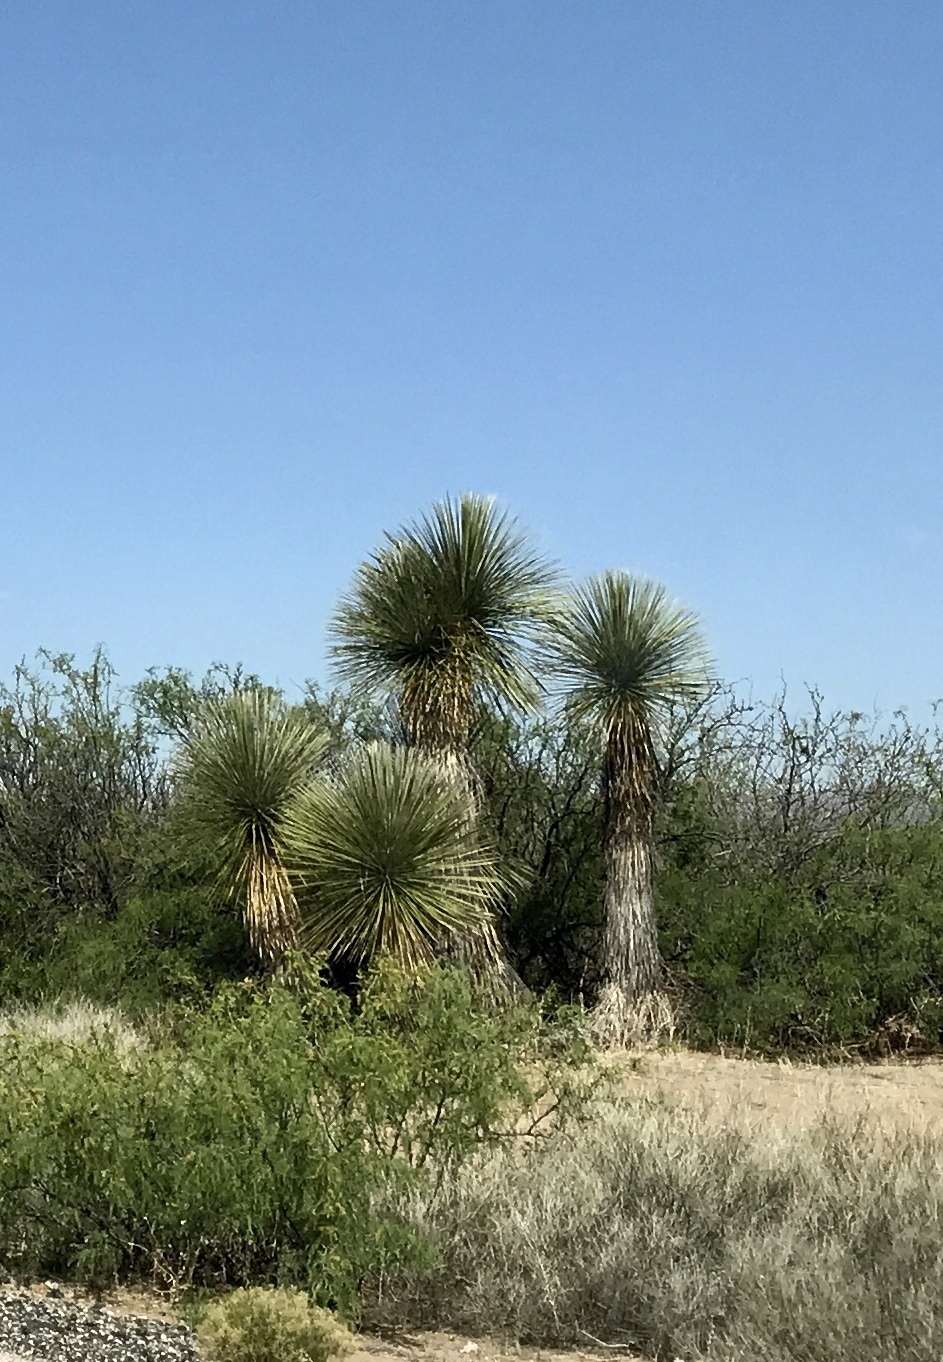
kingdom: Plantae
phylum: Tracheophyta
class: Liliopsida
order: Asparagales
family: Asparagaceae
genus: Yucca
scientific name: Yucca elata
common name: Palmella
